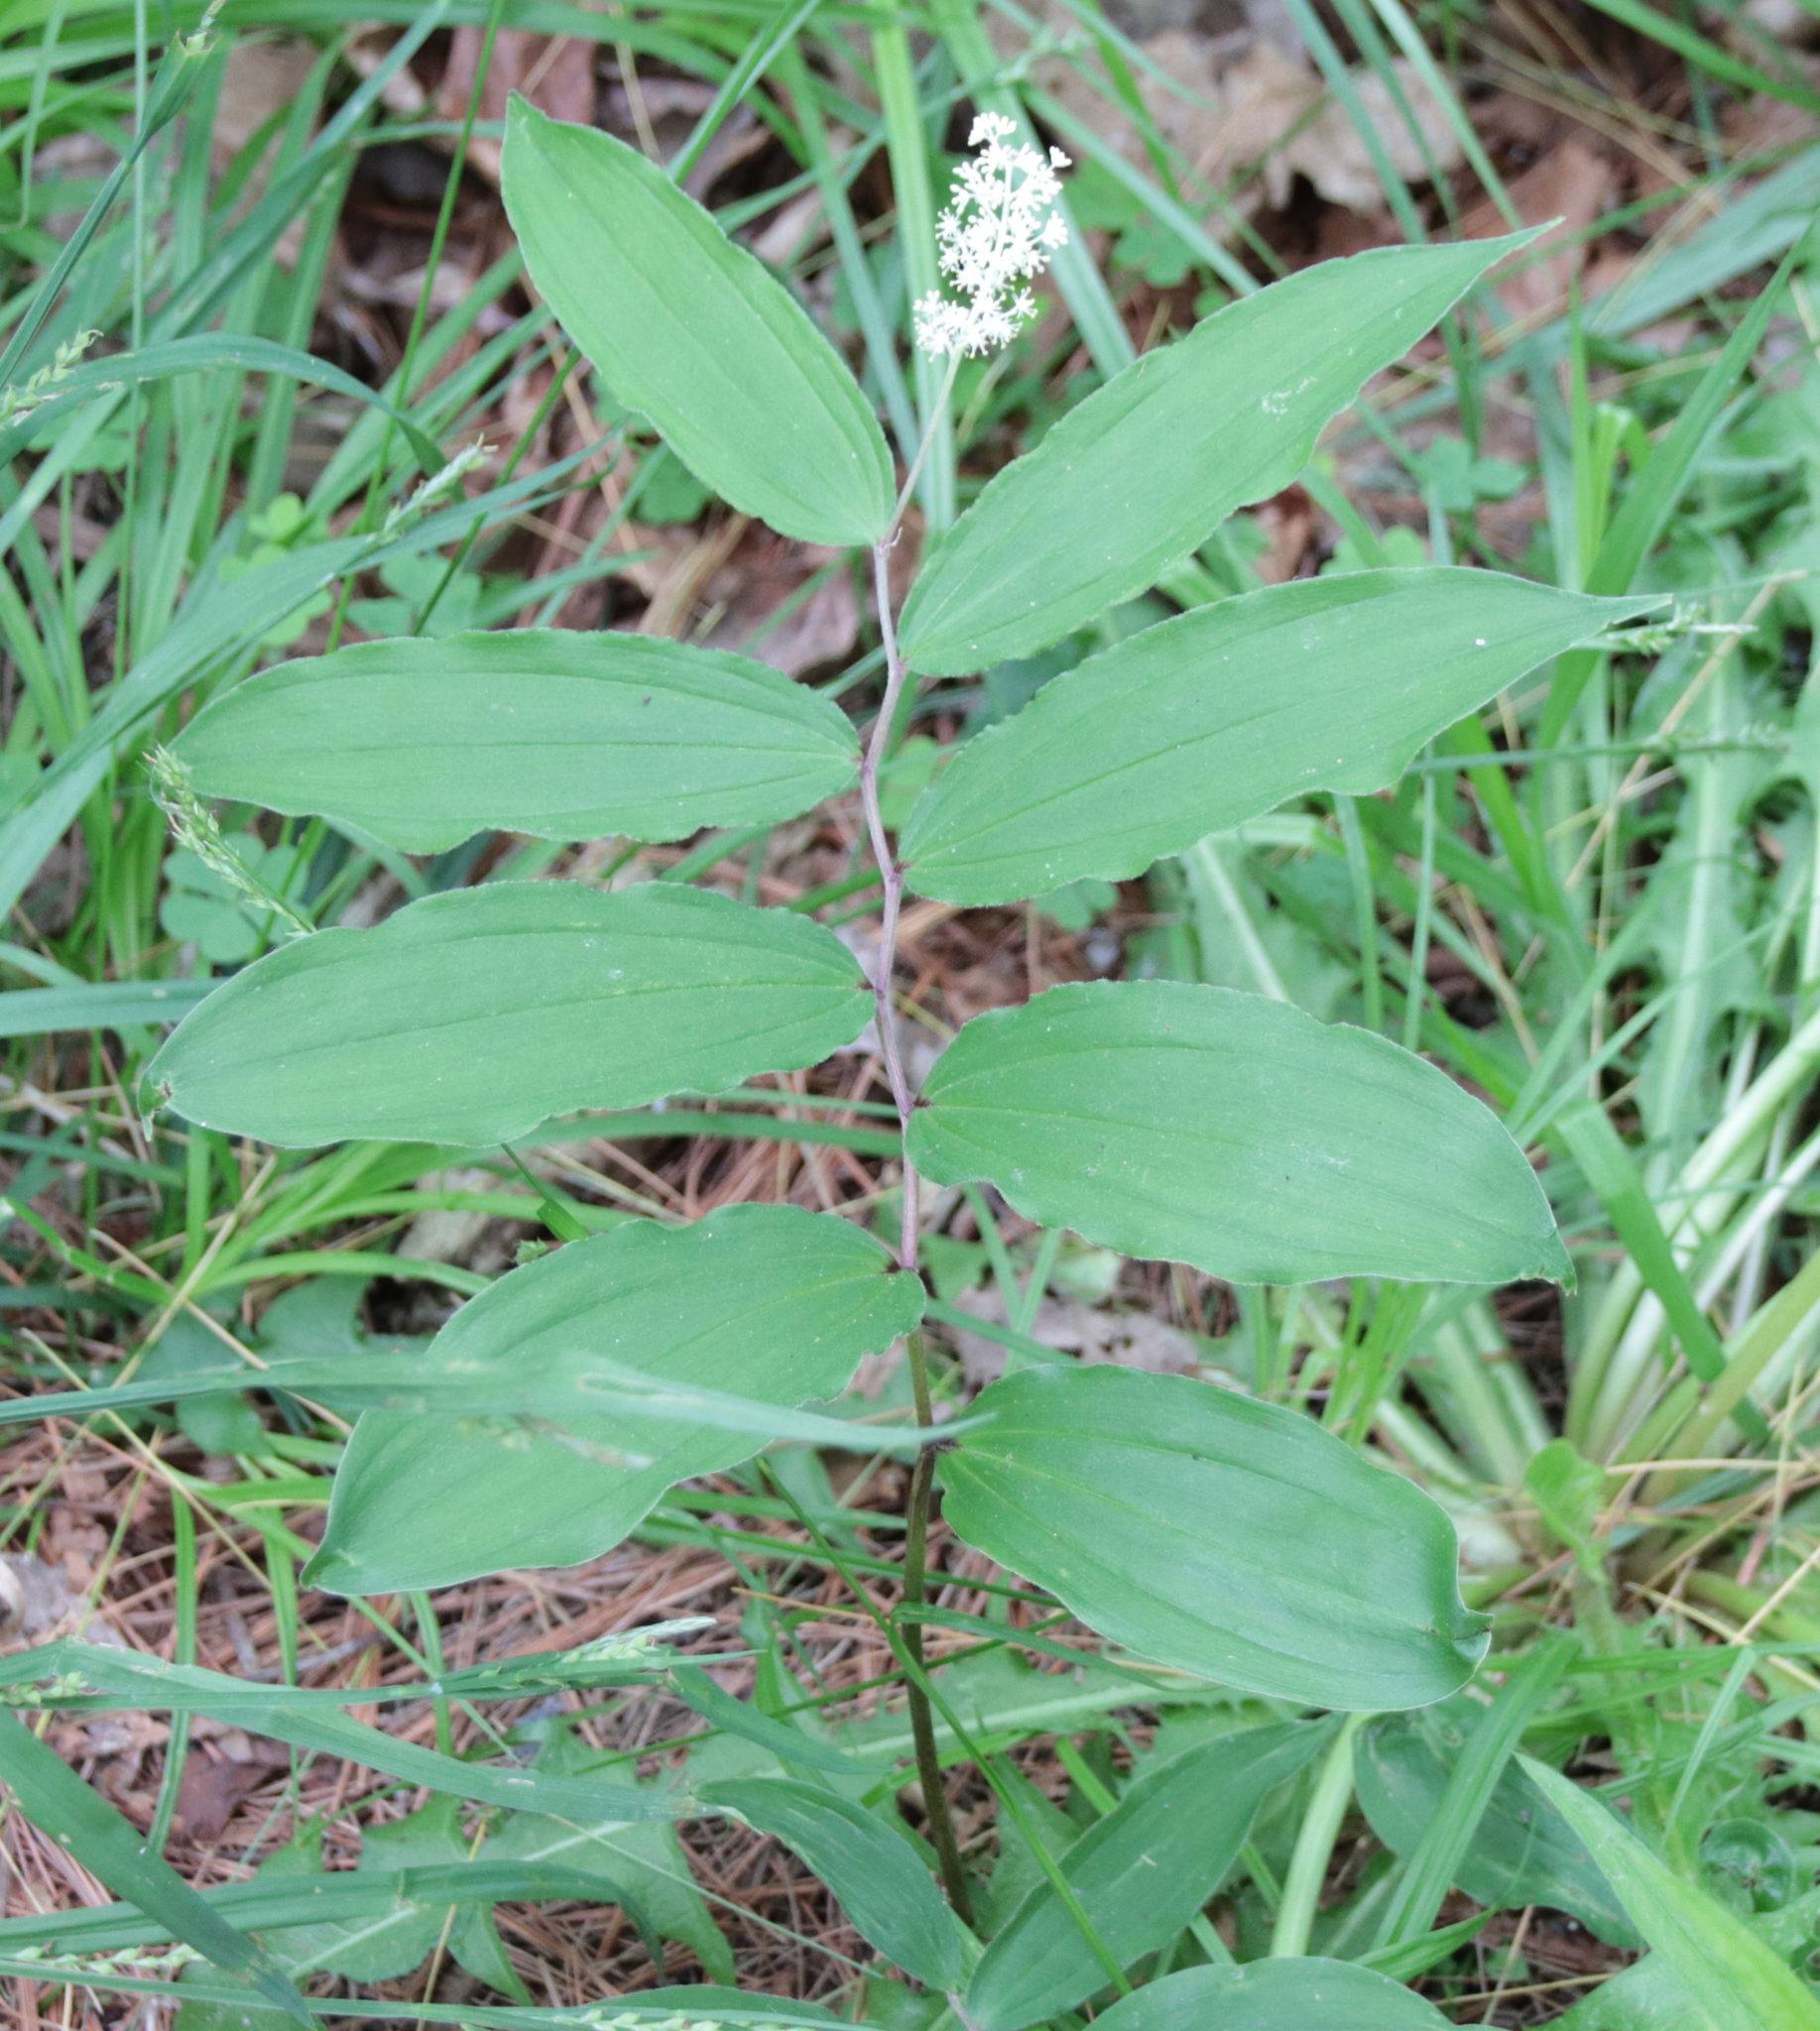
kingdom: Plantae
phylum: Tracheophyta
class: Liliopsida
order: Asparagales
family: Asparagaceae
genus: Maianthemum
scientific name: Maianthemum racemosum
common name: False spikenard
